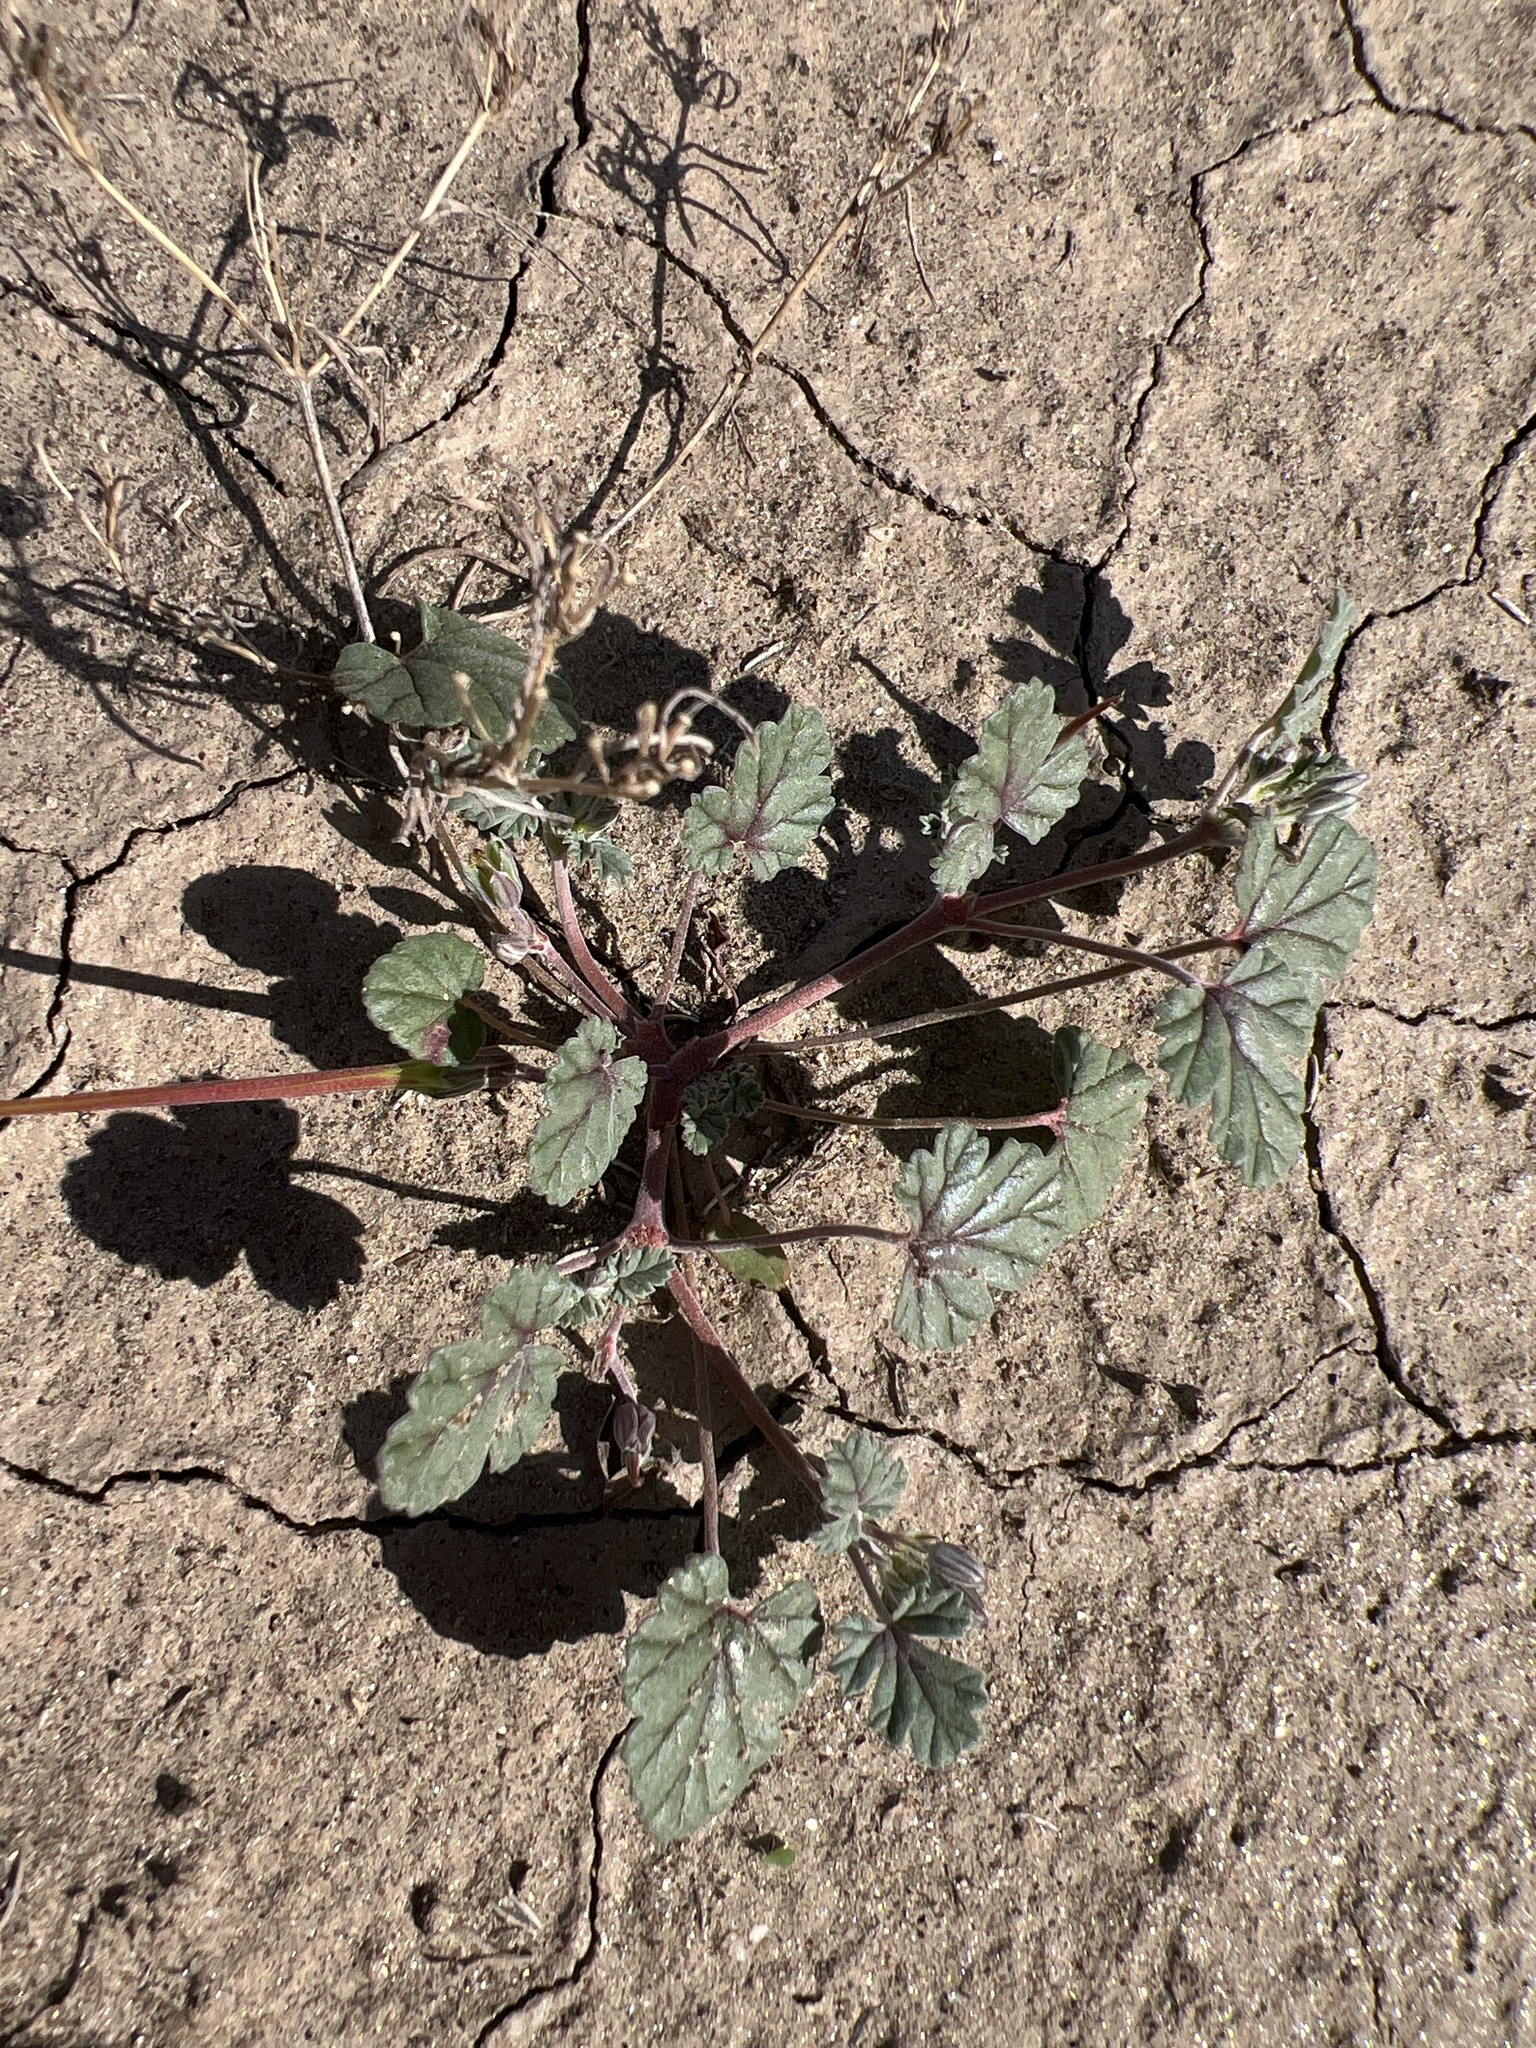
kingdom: Plantae
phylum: Tracheophyta
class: Magnoliopsida
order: Geraniales
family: Geraniaceae
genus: Erodium
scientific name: Erodium texanum
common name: Texas stork's-bill
